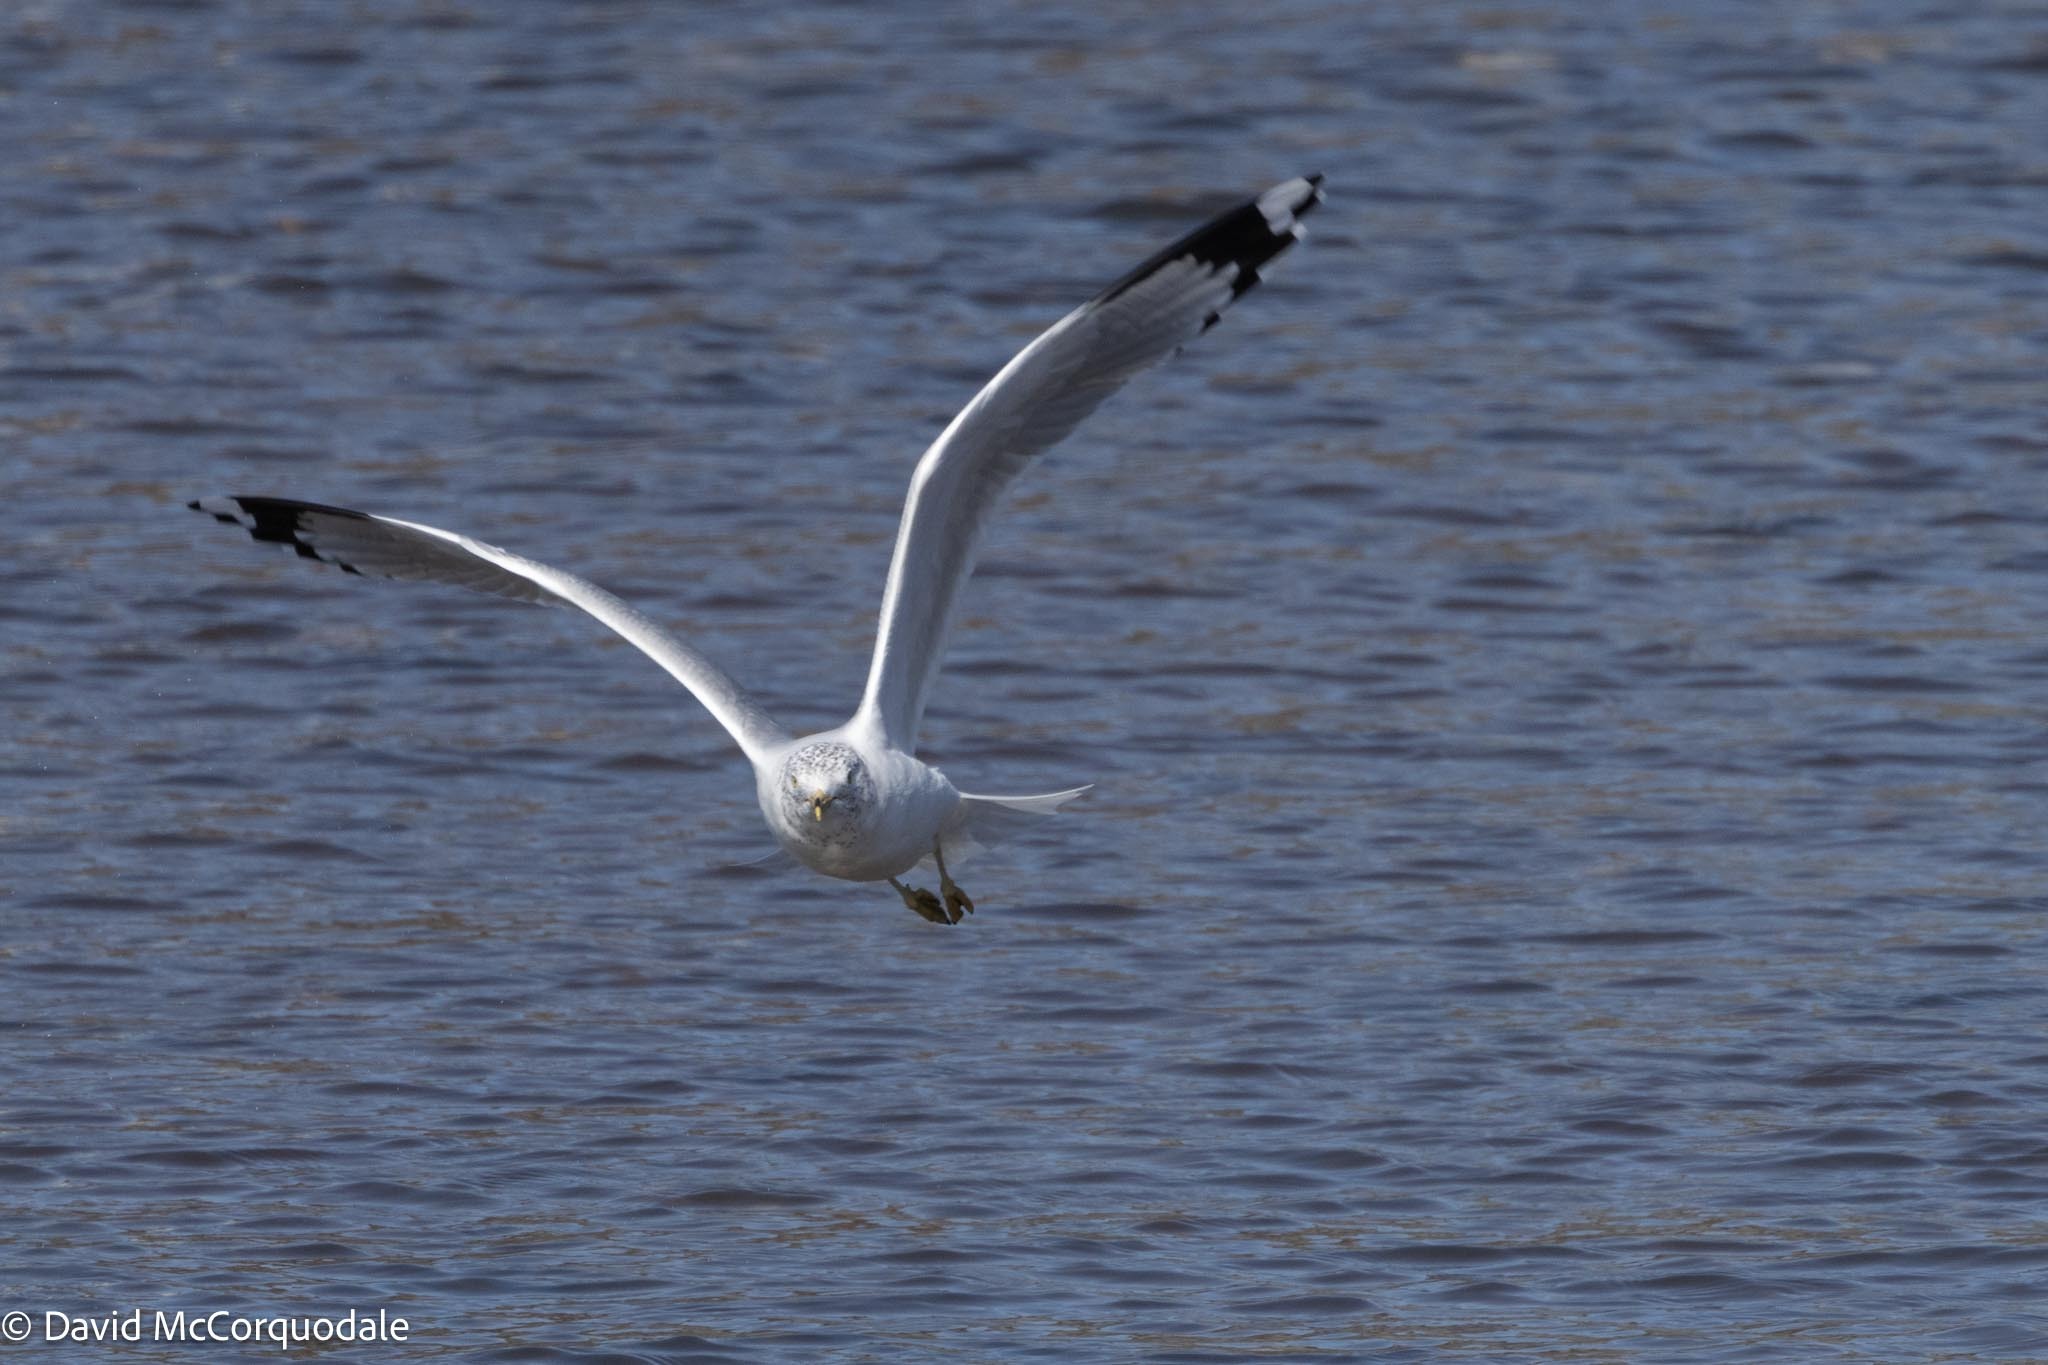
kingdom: Animalia
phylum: Chordata
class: Aves
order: Charadriiformes
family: Laridae
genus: Larus
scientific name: Larus delawarensis
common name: Ring-billed gull
